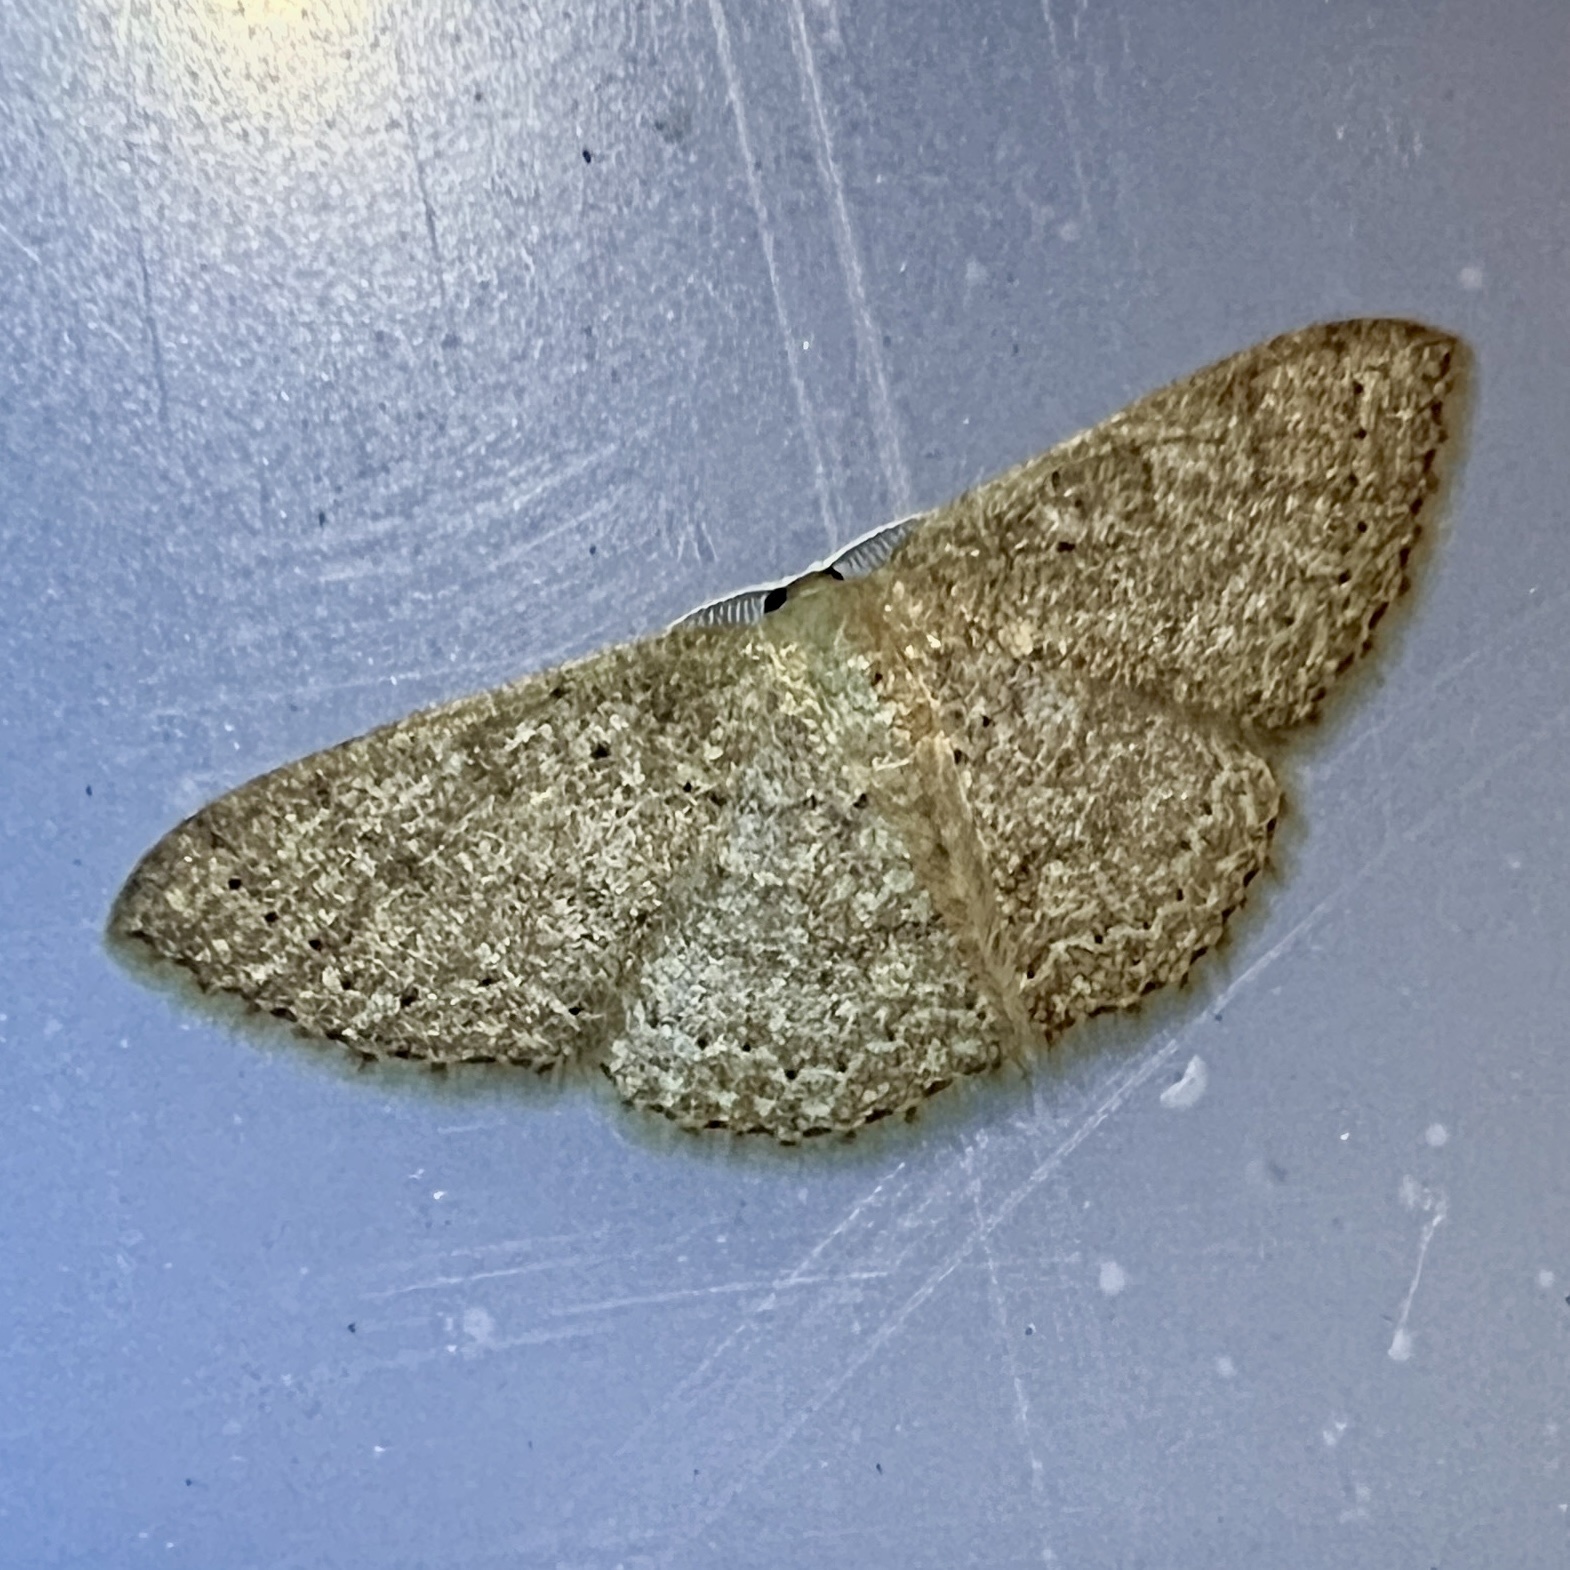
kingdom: Animalia
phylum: Arthropoda
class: Insecta
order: Lepidoptera
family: Geometridae
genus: Pleuroprucha
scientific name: Pleuroprucha insulsaria
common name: Common tan wave
